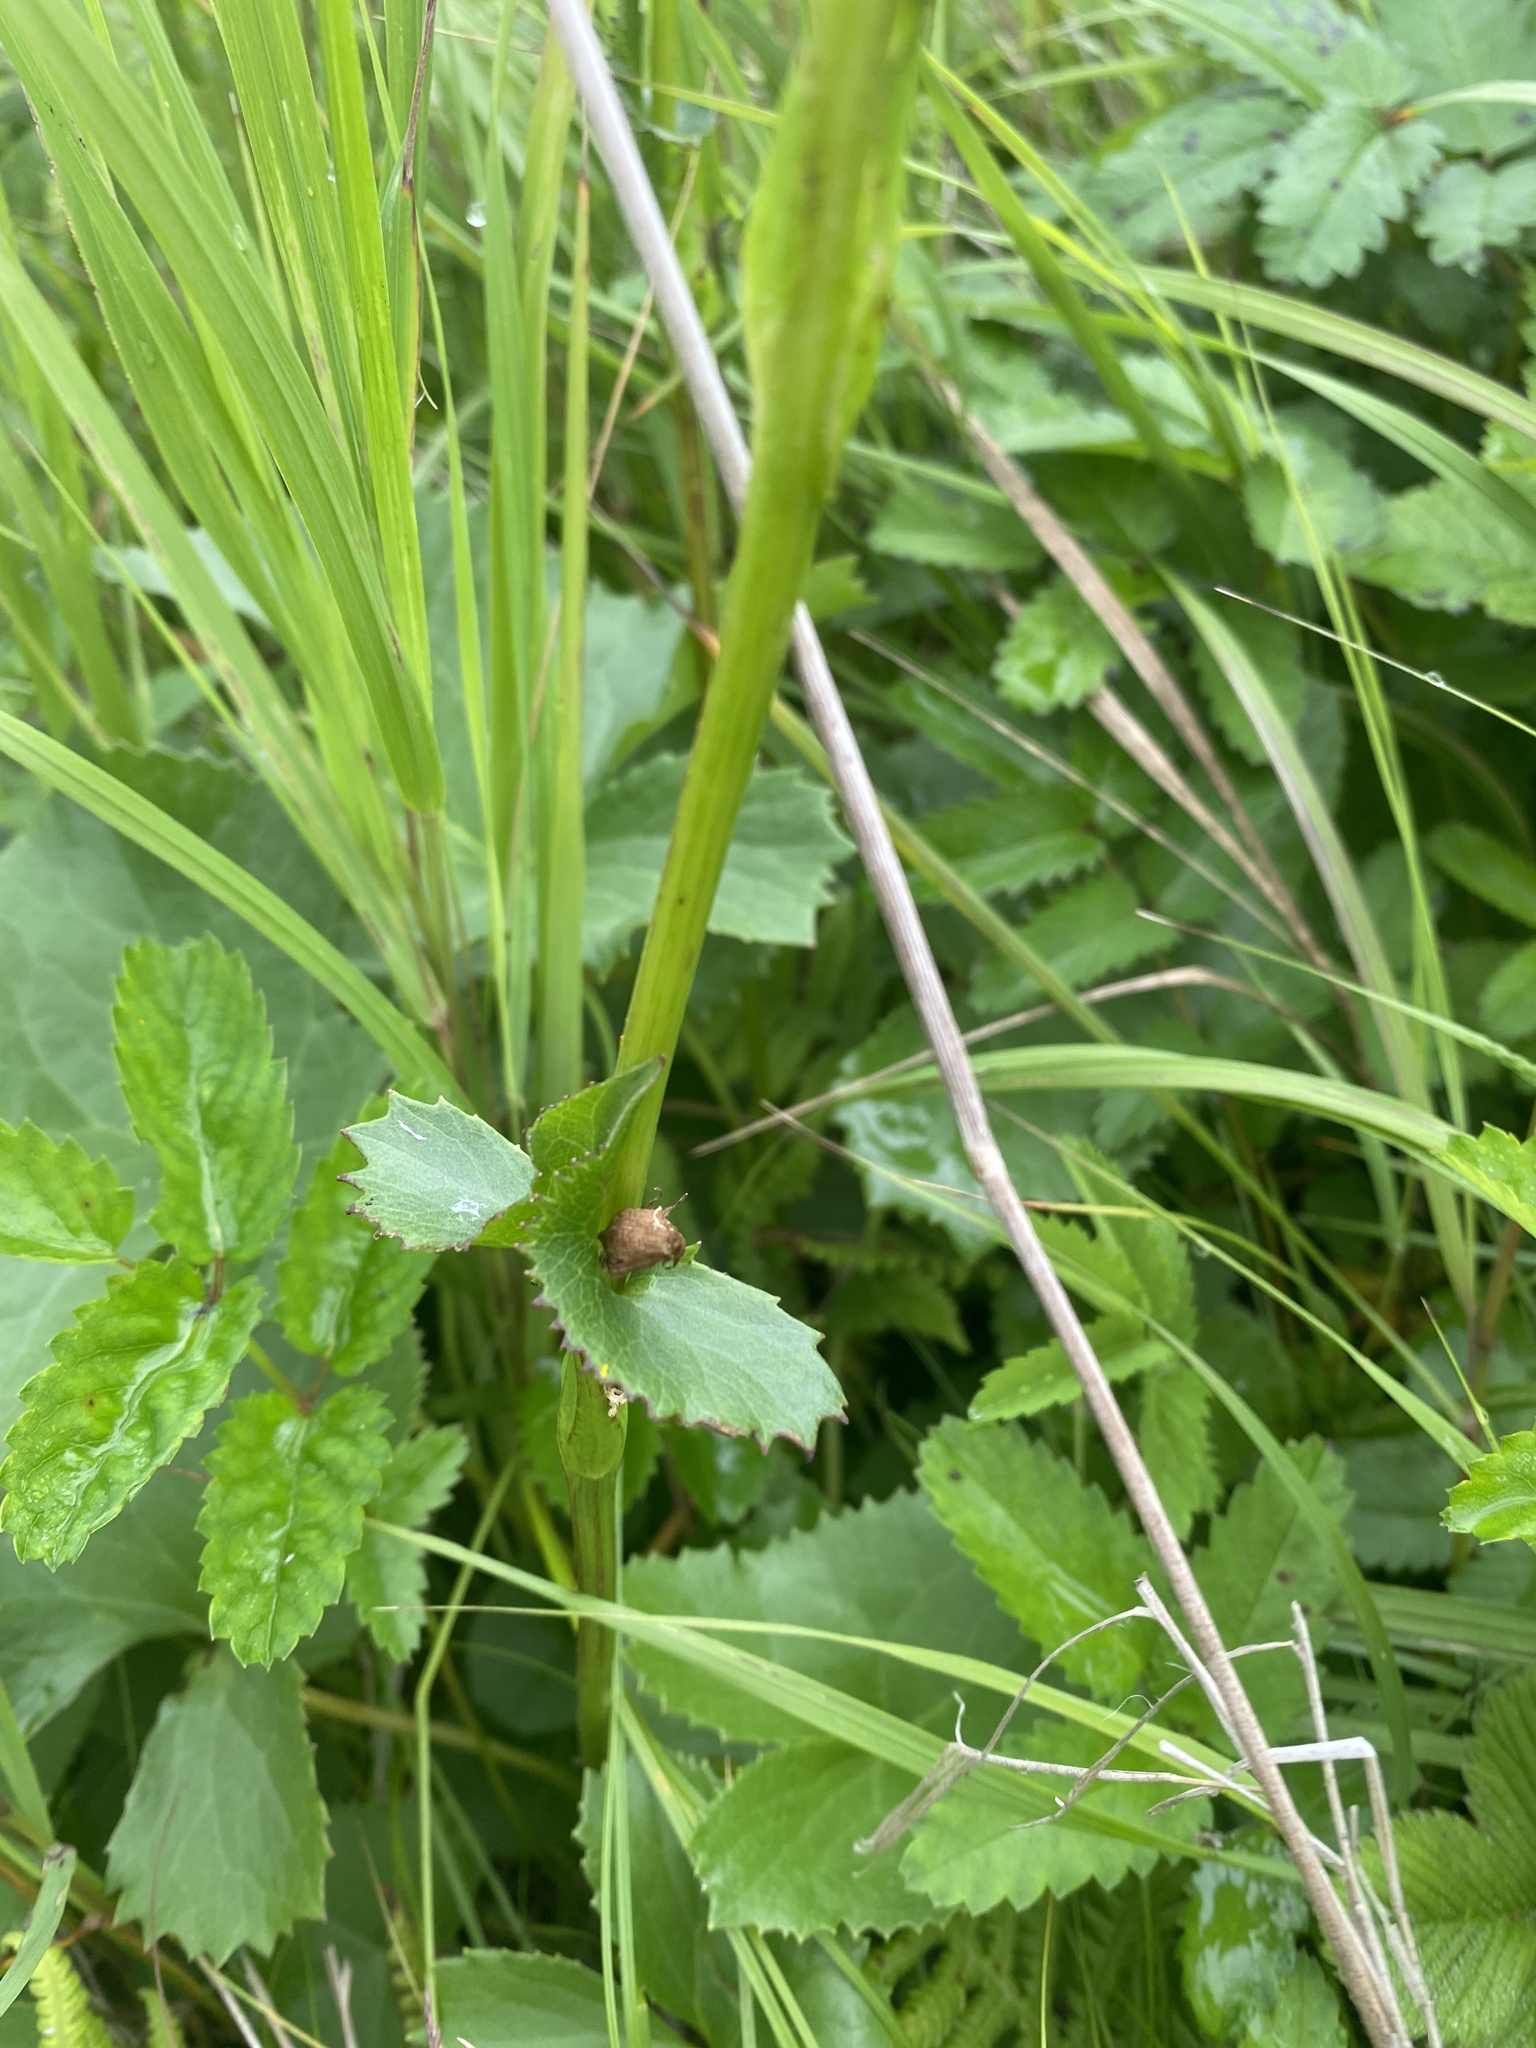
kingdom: Plantae
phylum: Tracheophyta
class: Magnoliopsida
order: Asterales
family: Asteraceae
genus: Jacobaea
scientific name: Jacobaea cannabifolia
